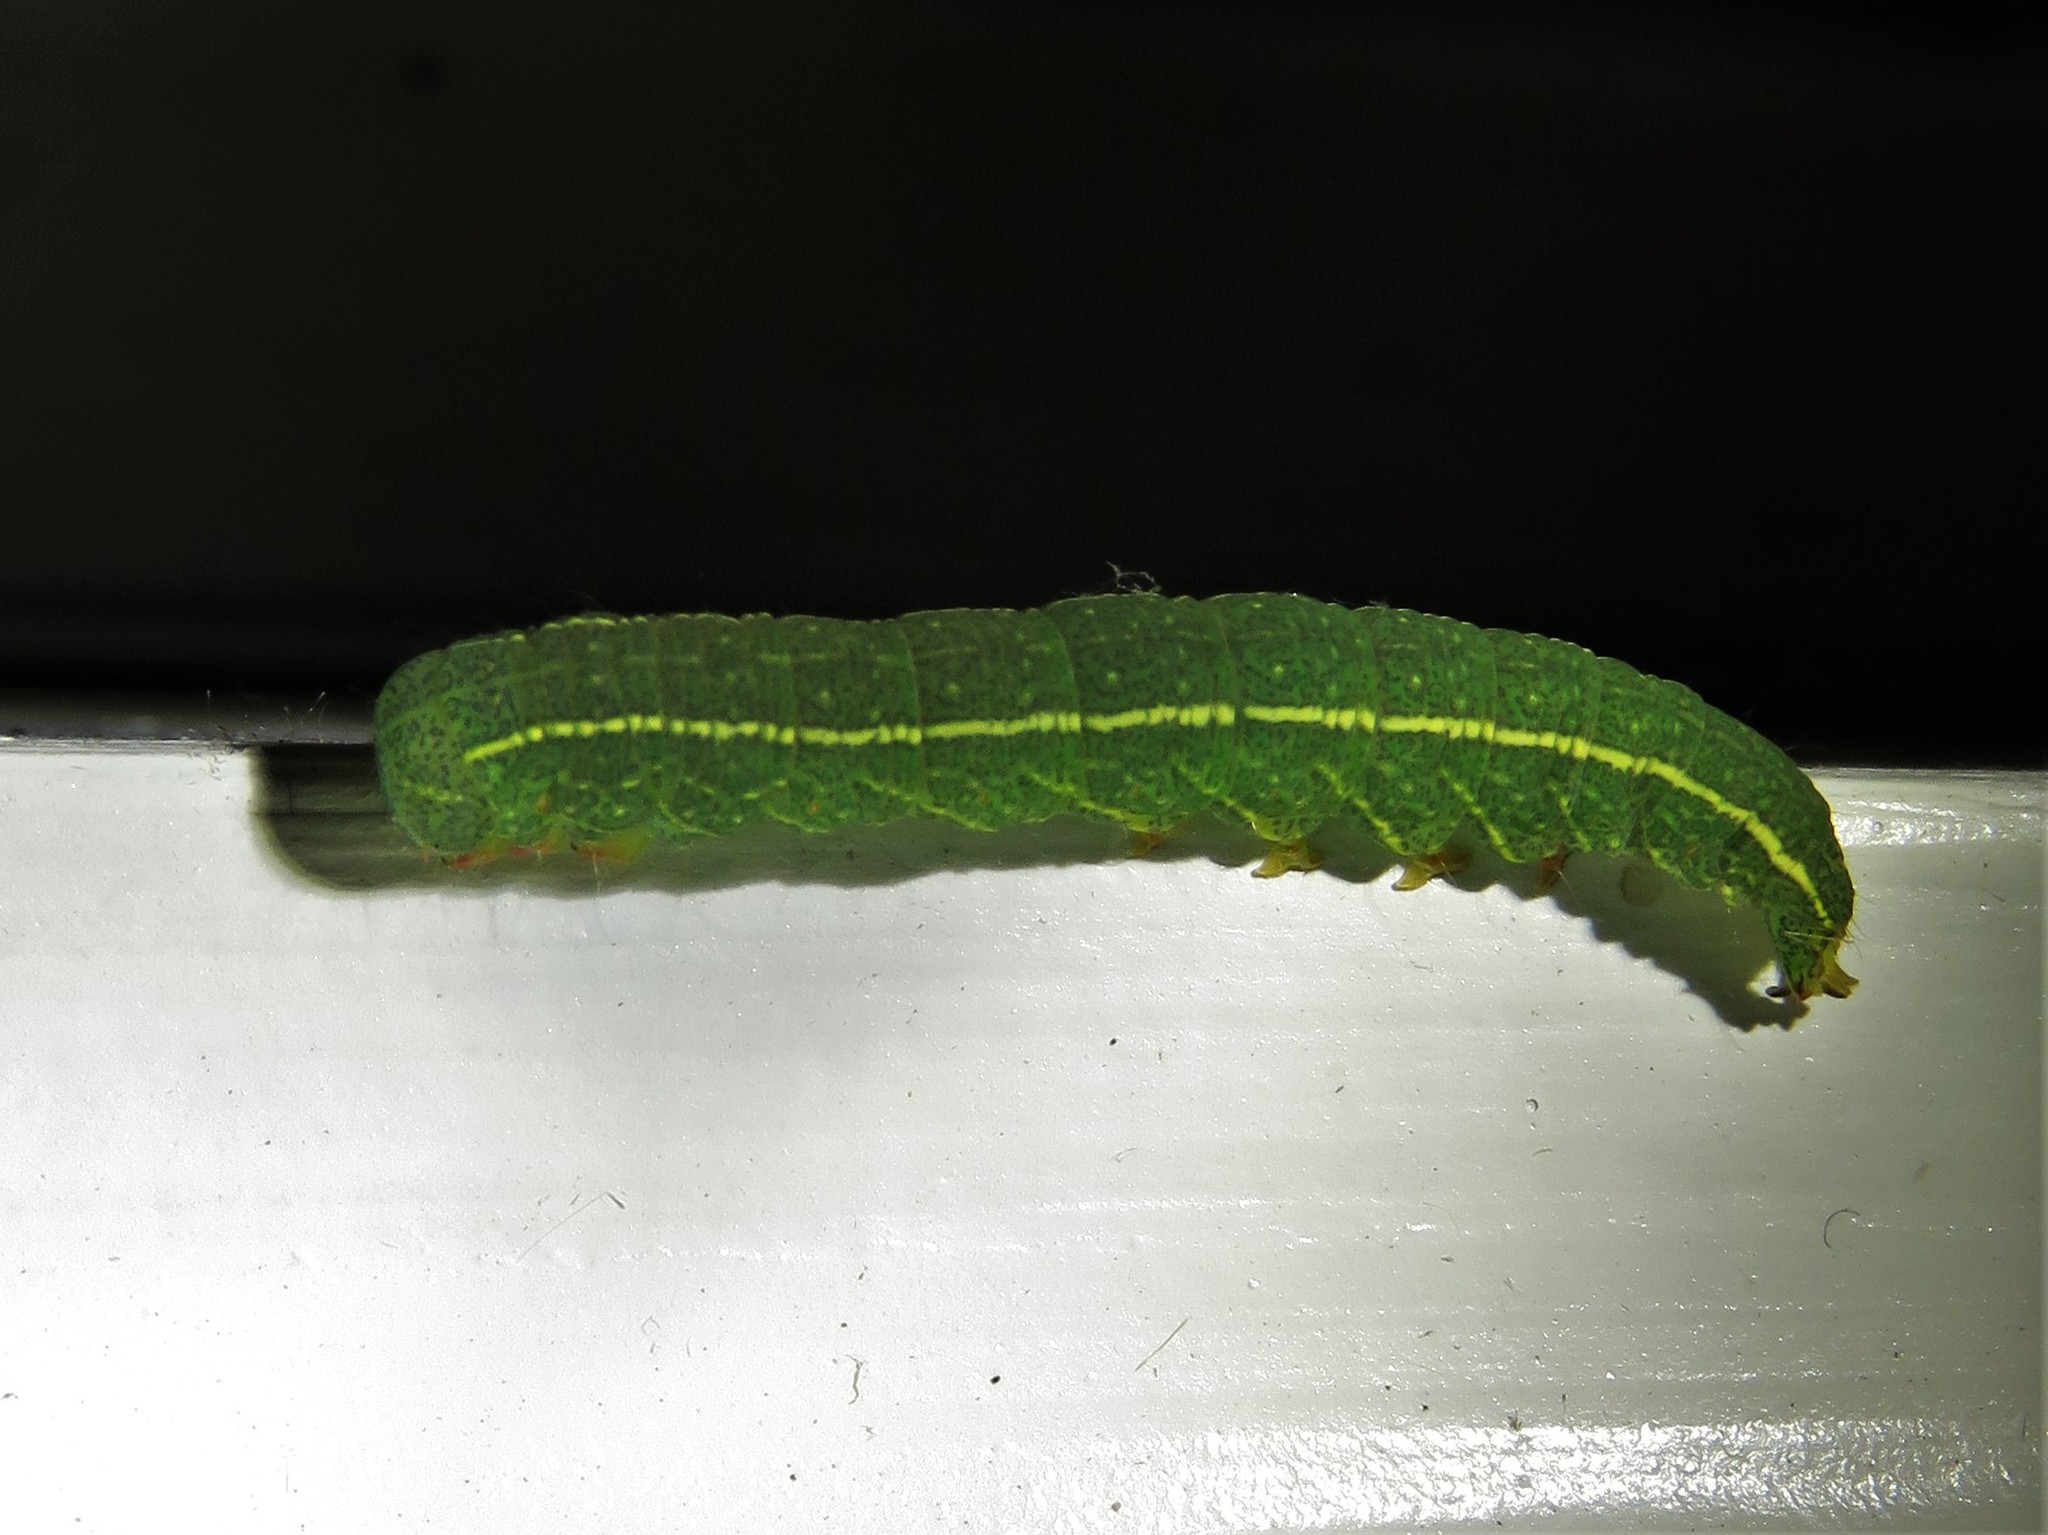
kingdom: Animalia
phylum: Arthropoda
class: Insecta
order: Lepidoptera
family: Erebidae
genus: Panopoda
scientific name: Panopoda rufimargo
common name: Red-lined panopoda moth
